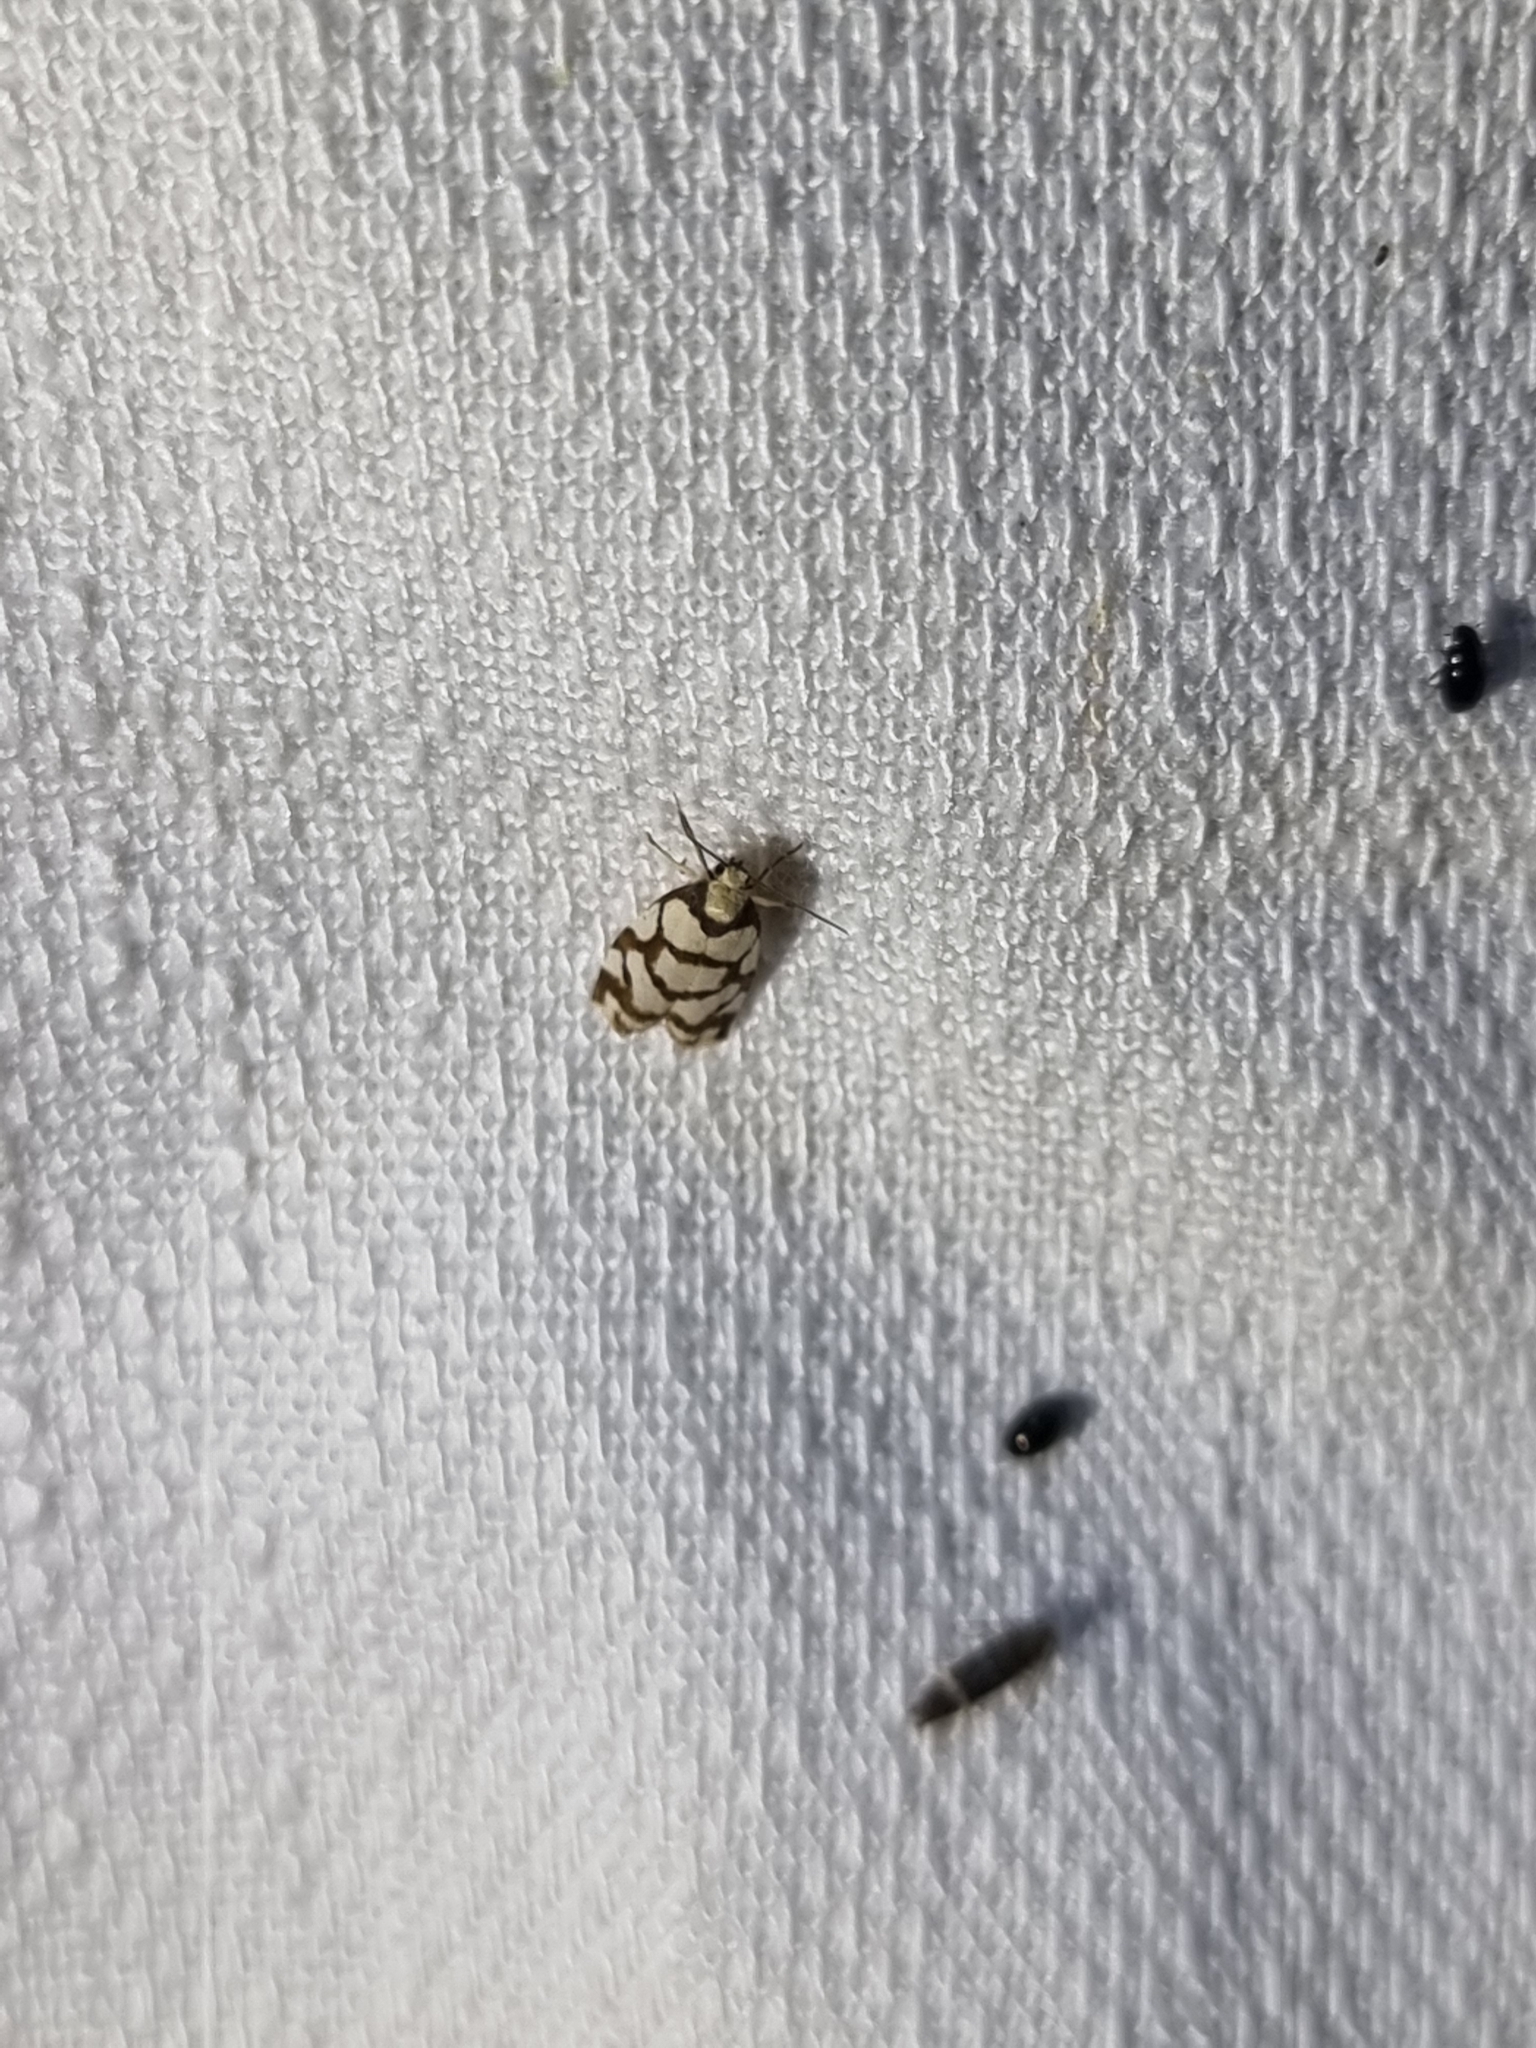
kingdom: Animalia
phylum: Arthropoda
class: Insecta
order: Lepidoptera
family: Erebidae
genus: Scaptesyle
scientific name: Scaptesyle dichotoma
